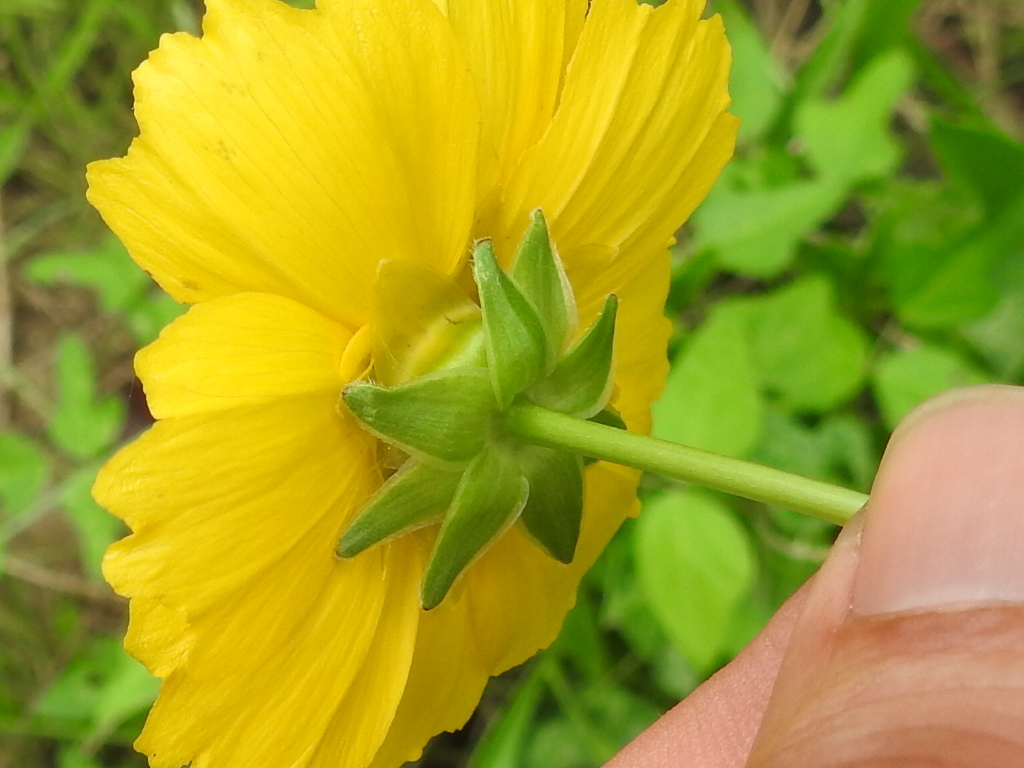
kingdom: Plantae
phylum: Tracheophyta
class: Magnoliopsida
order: Asterales
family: Asteraceae
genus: Coreopsis
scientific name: Coreopsis intermedia
